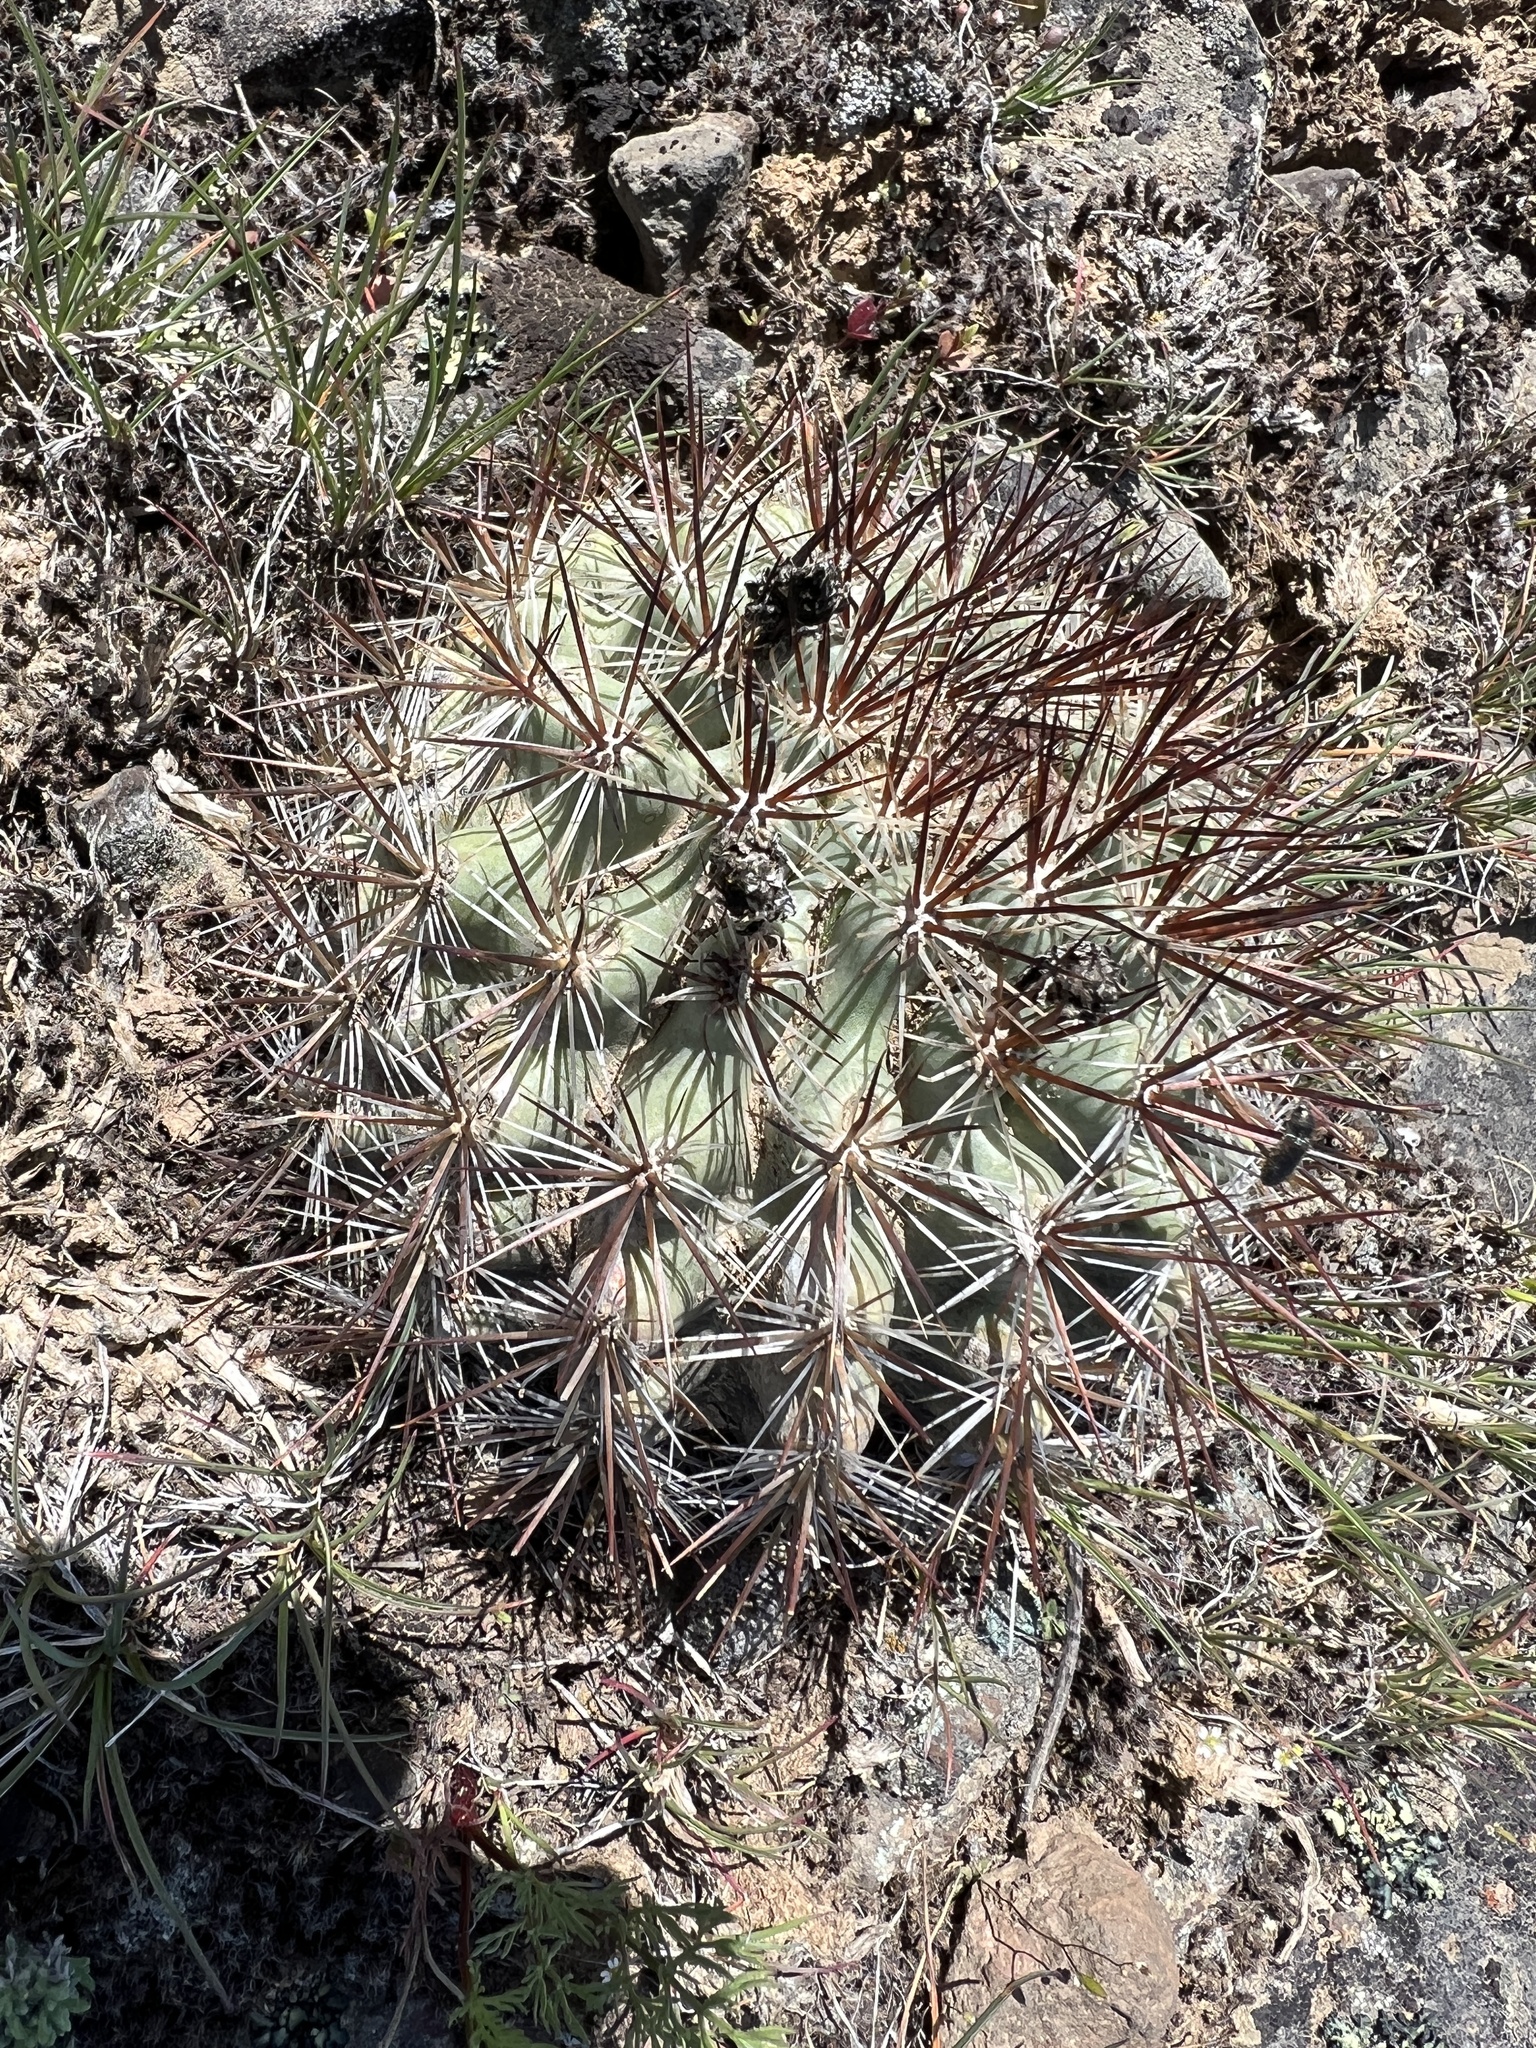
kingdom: Plantae
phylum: Tracheophyta
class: Magnoliopsida
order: Caryophyllales
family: Cactaceae
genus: Pediocactus
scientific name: Pediocactus nigrispinus
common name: Simpson's hedgehog cactus
